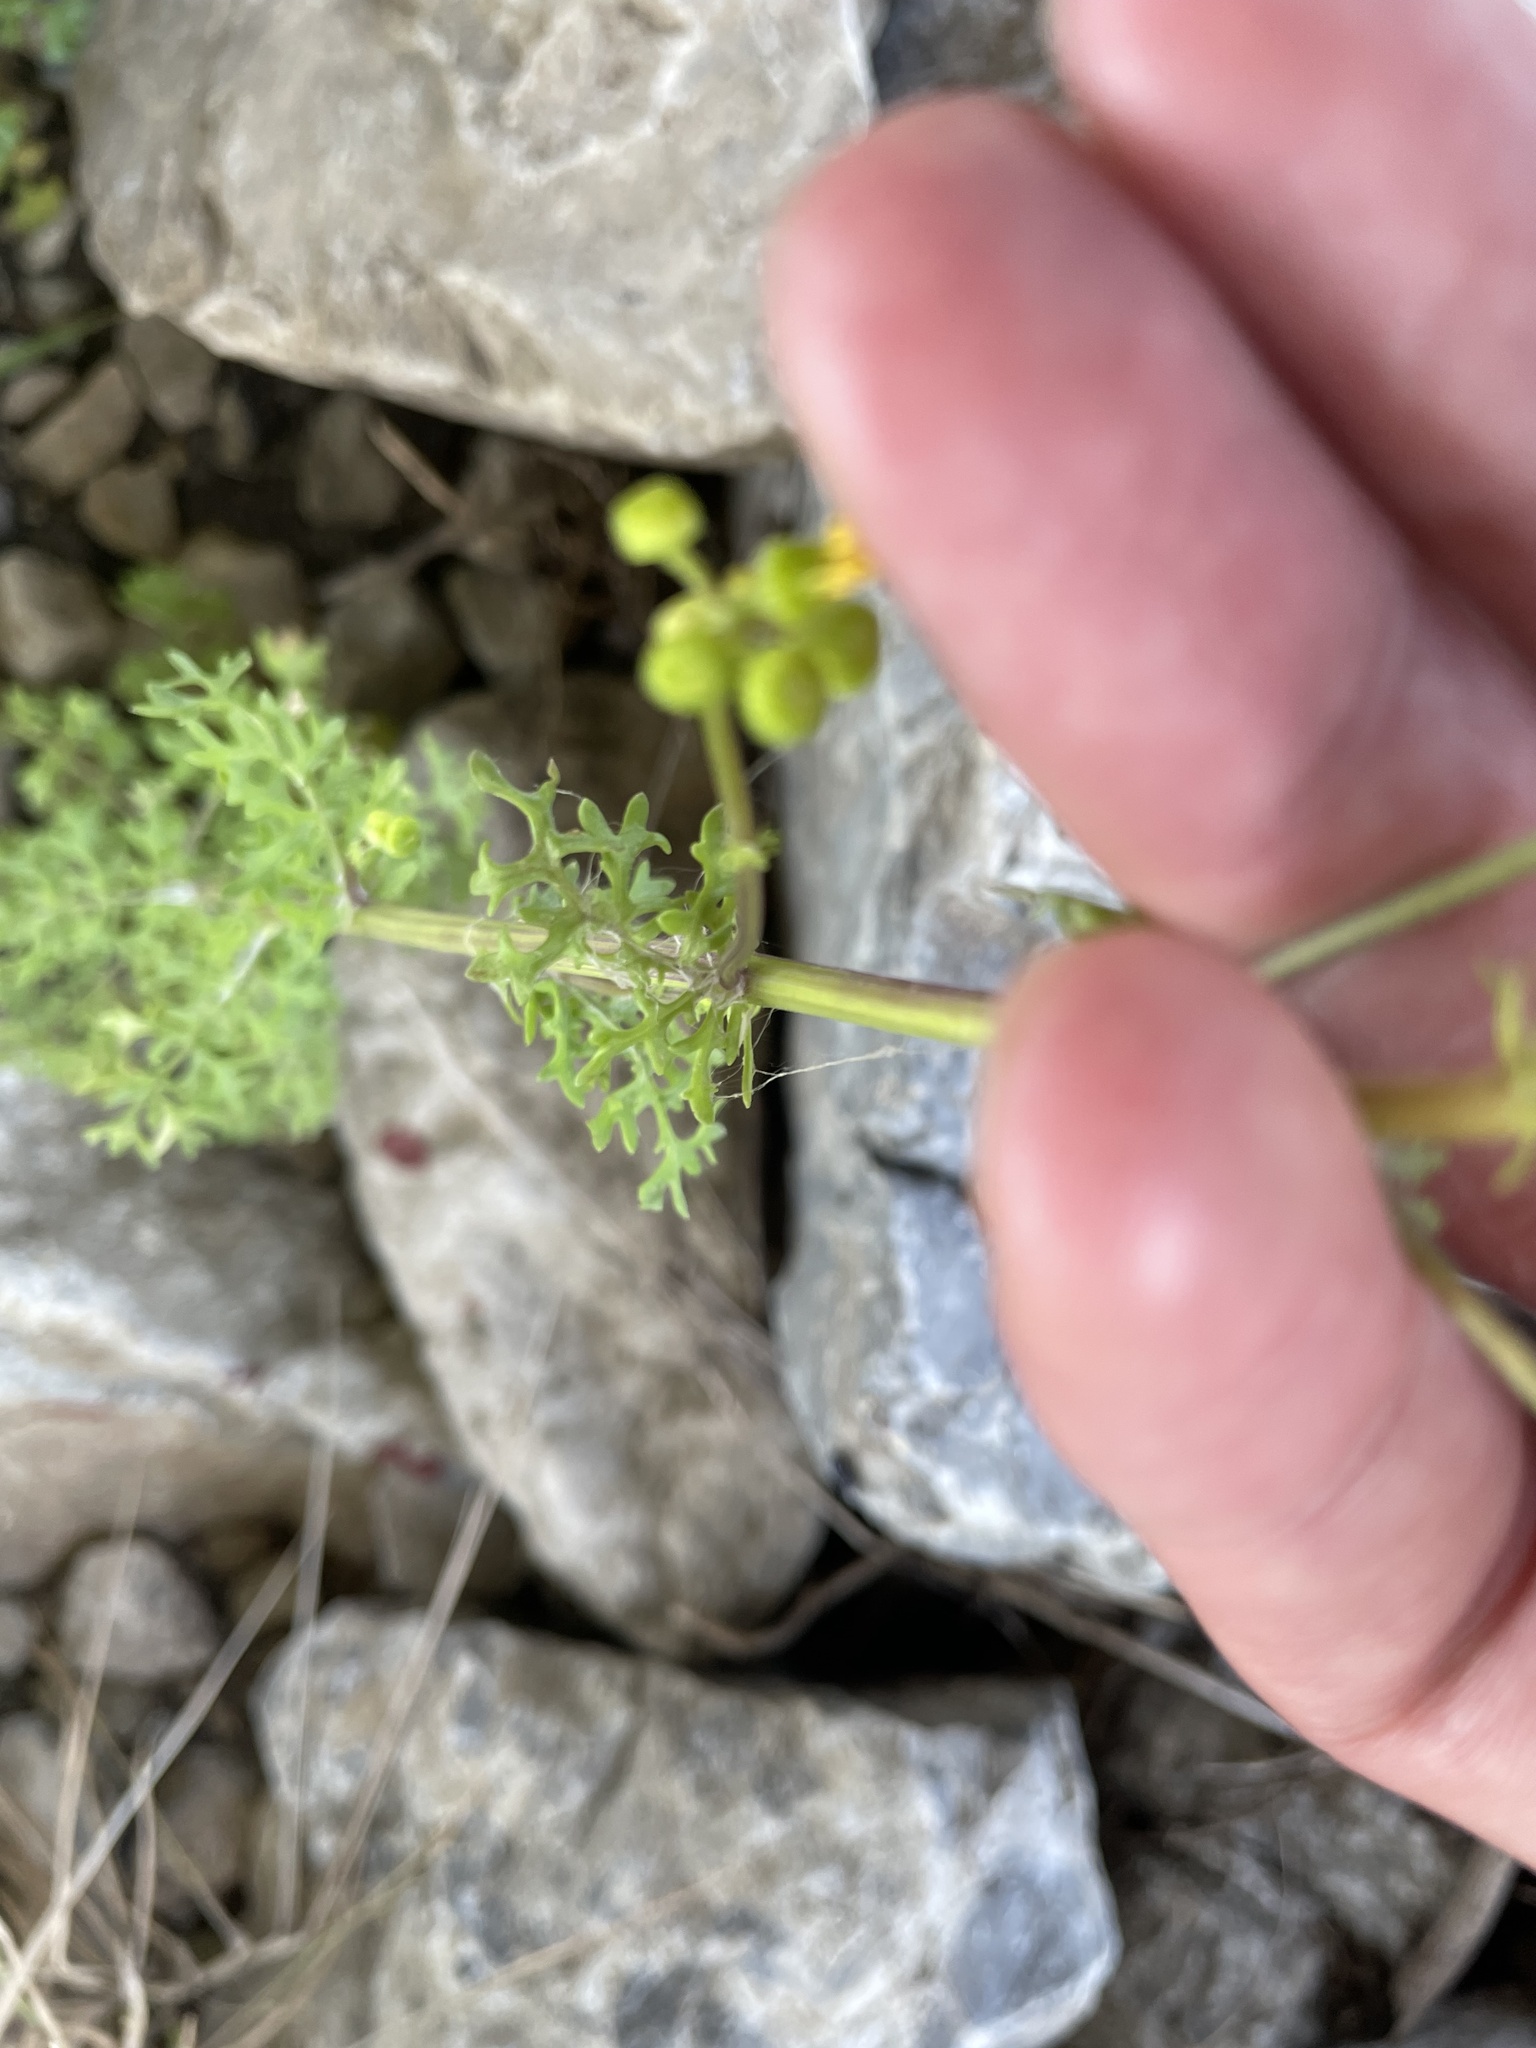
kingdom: Plantae
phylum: Tracheophyta
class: Magnoliopsida
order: Asterales
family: Asteraceae
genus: Packera
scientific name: Packera tampicana
